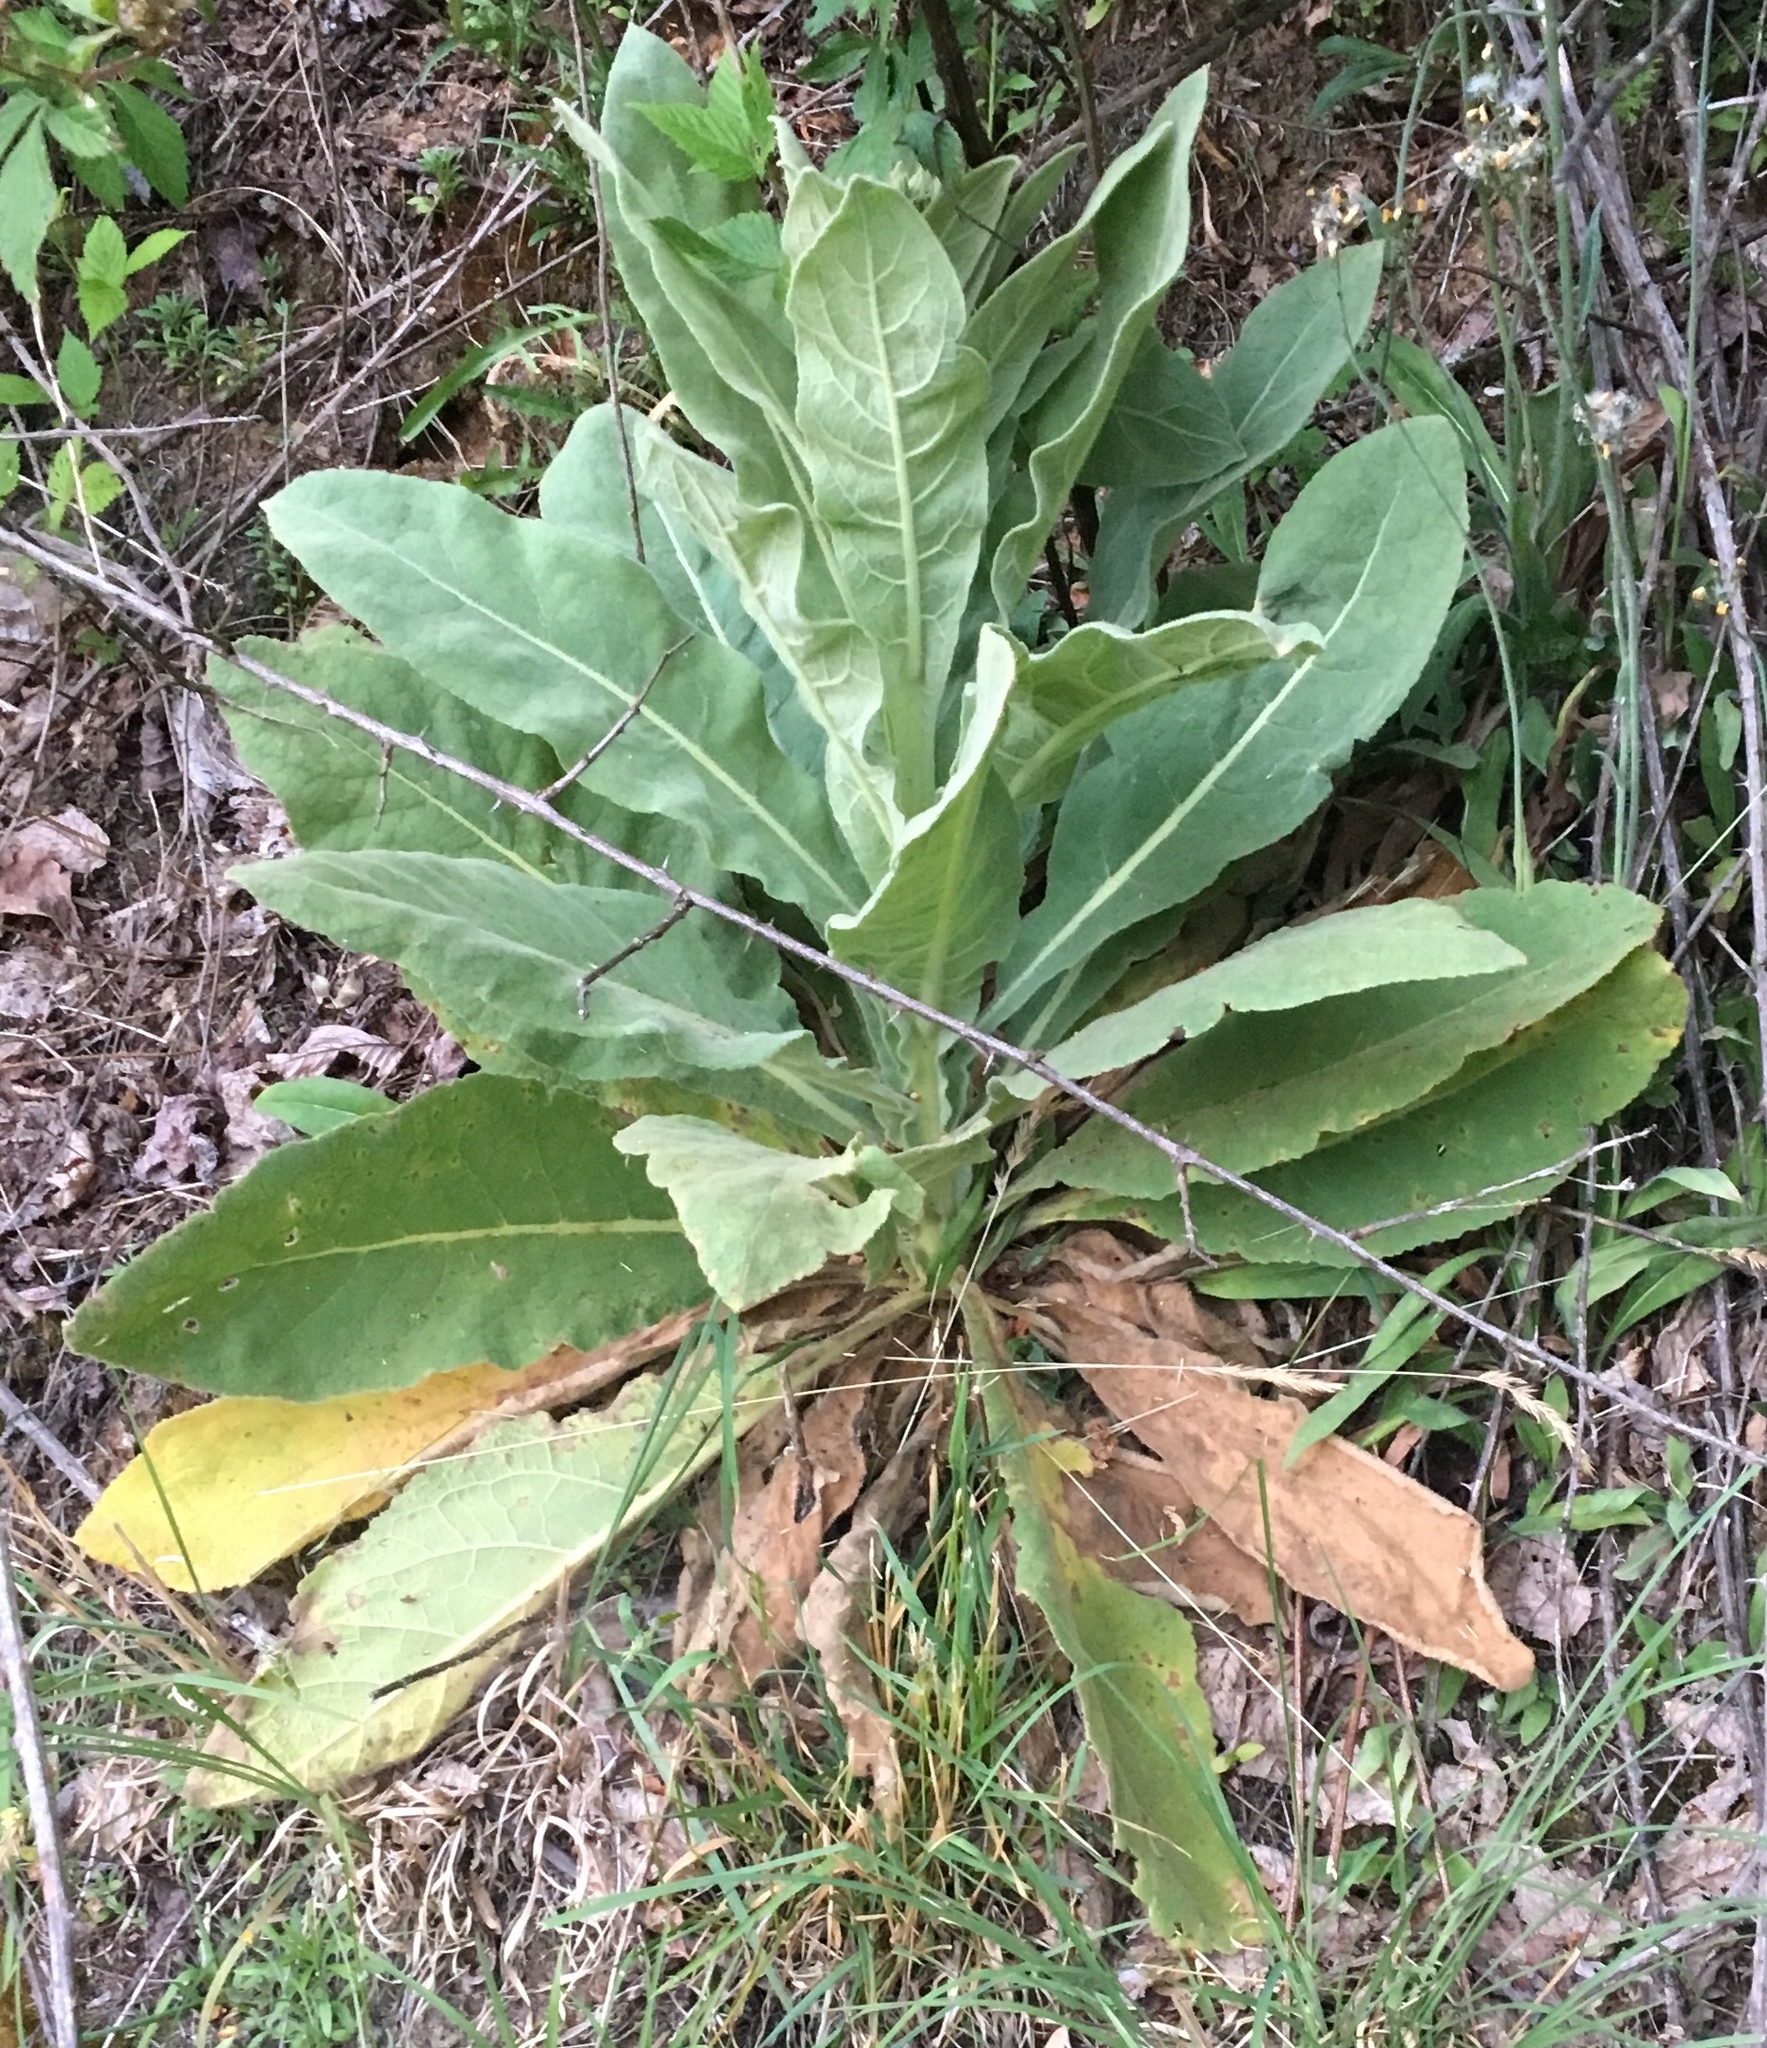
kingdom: Plantae
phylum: Tracheophyta
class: Magnoliopsida
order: Lamiales
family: Scrophulariaceae
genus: Verbascum
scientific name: Verbascum thapsus
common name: Common mullein
